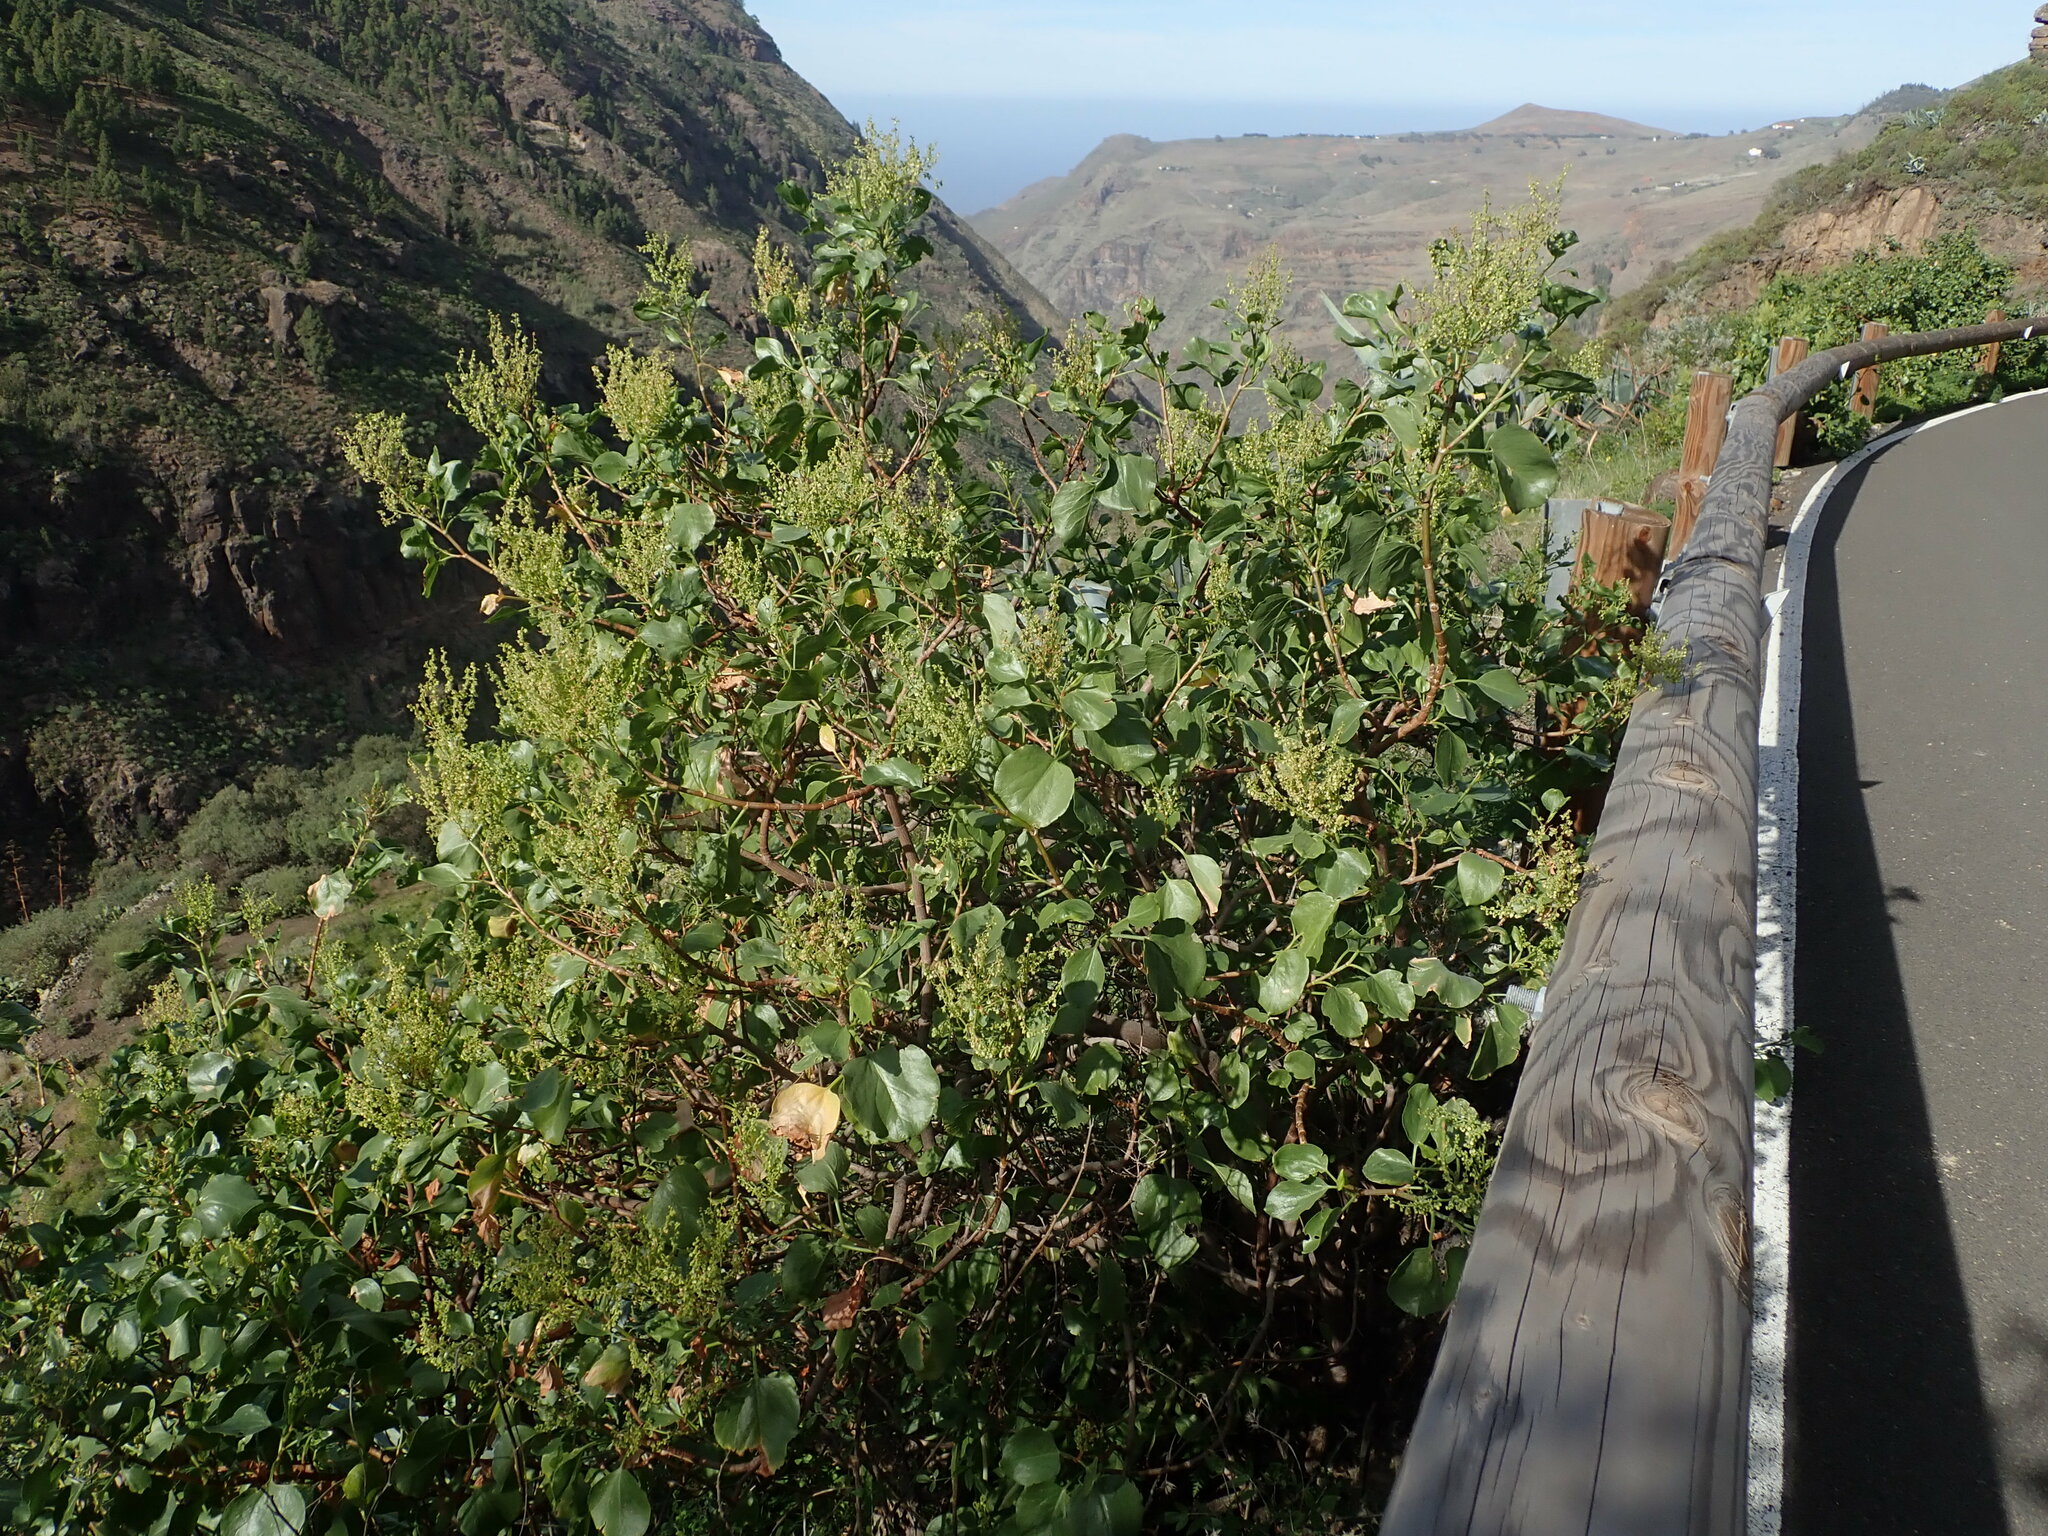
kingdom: Plantae
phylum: Tracheophyta
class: Magnoliopsida
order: Caryophyllales
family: Polygonaceae
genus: Rumex
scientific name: Rumex lunaria
